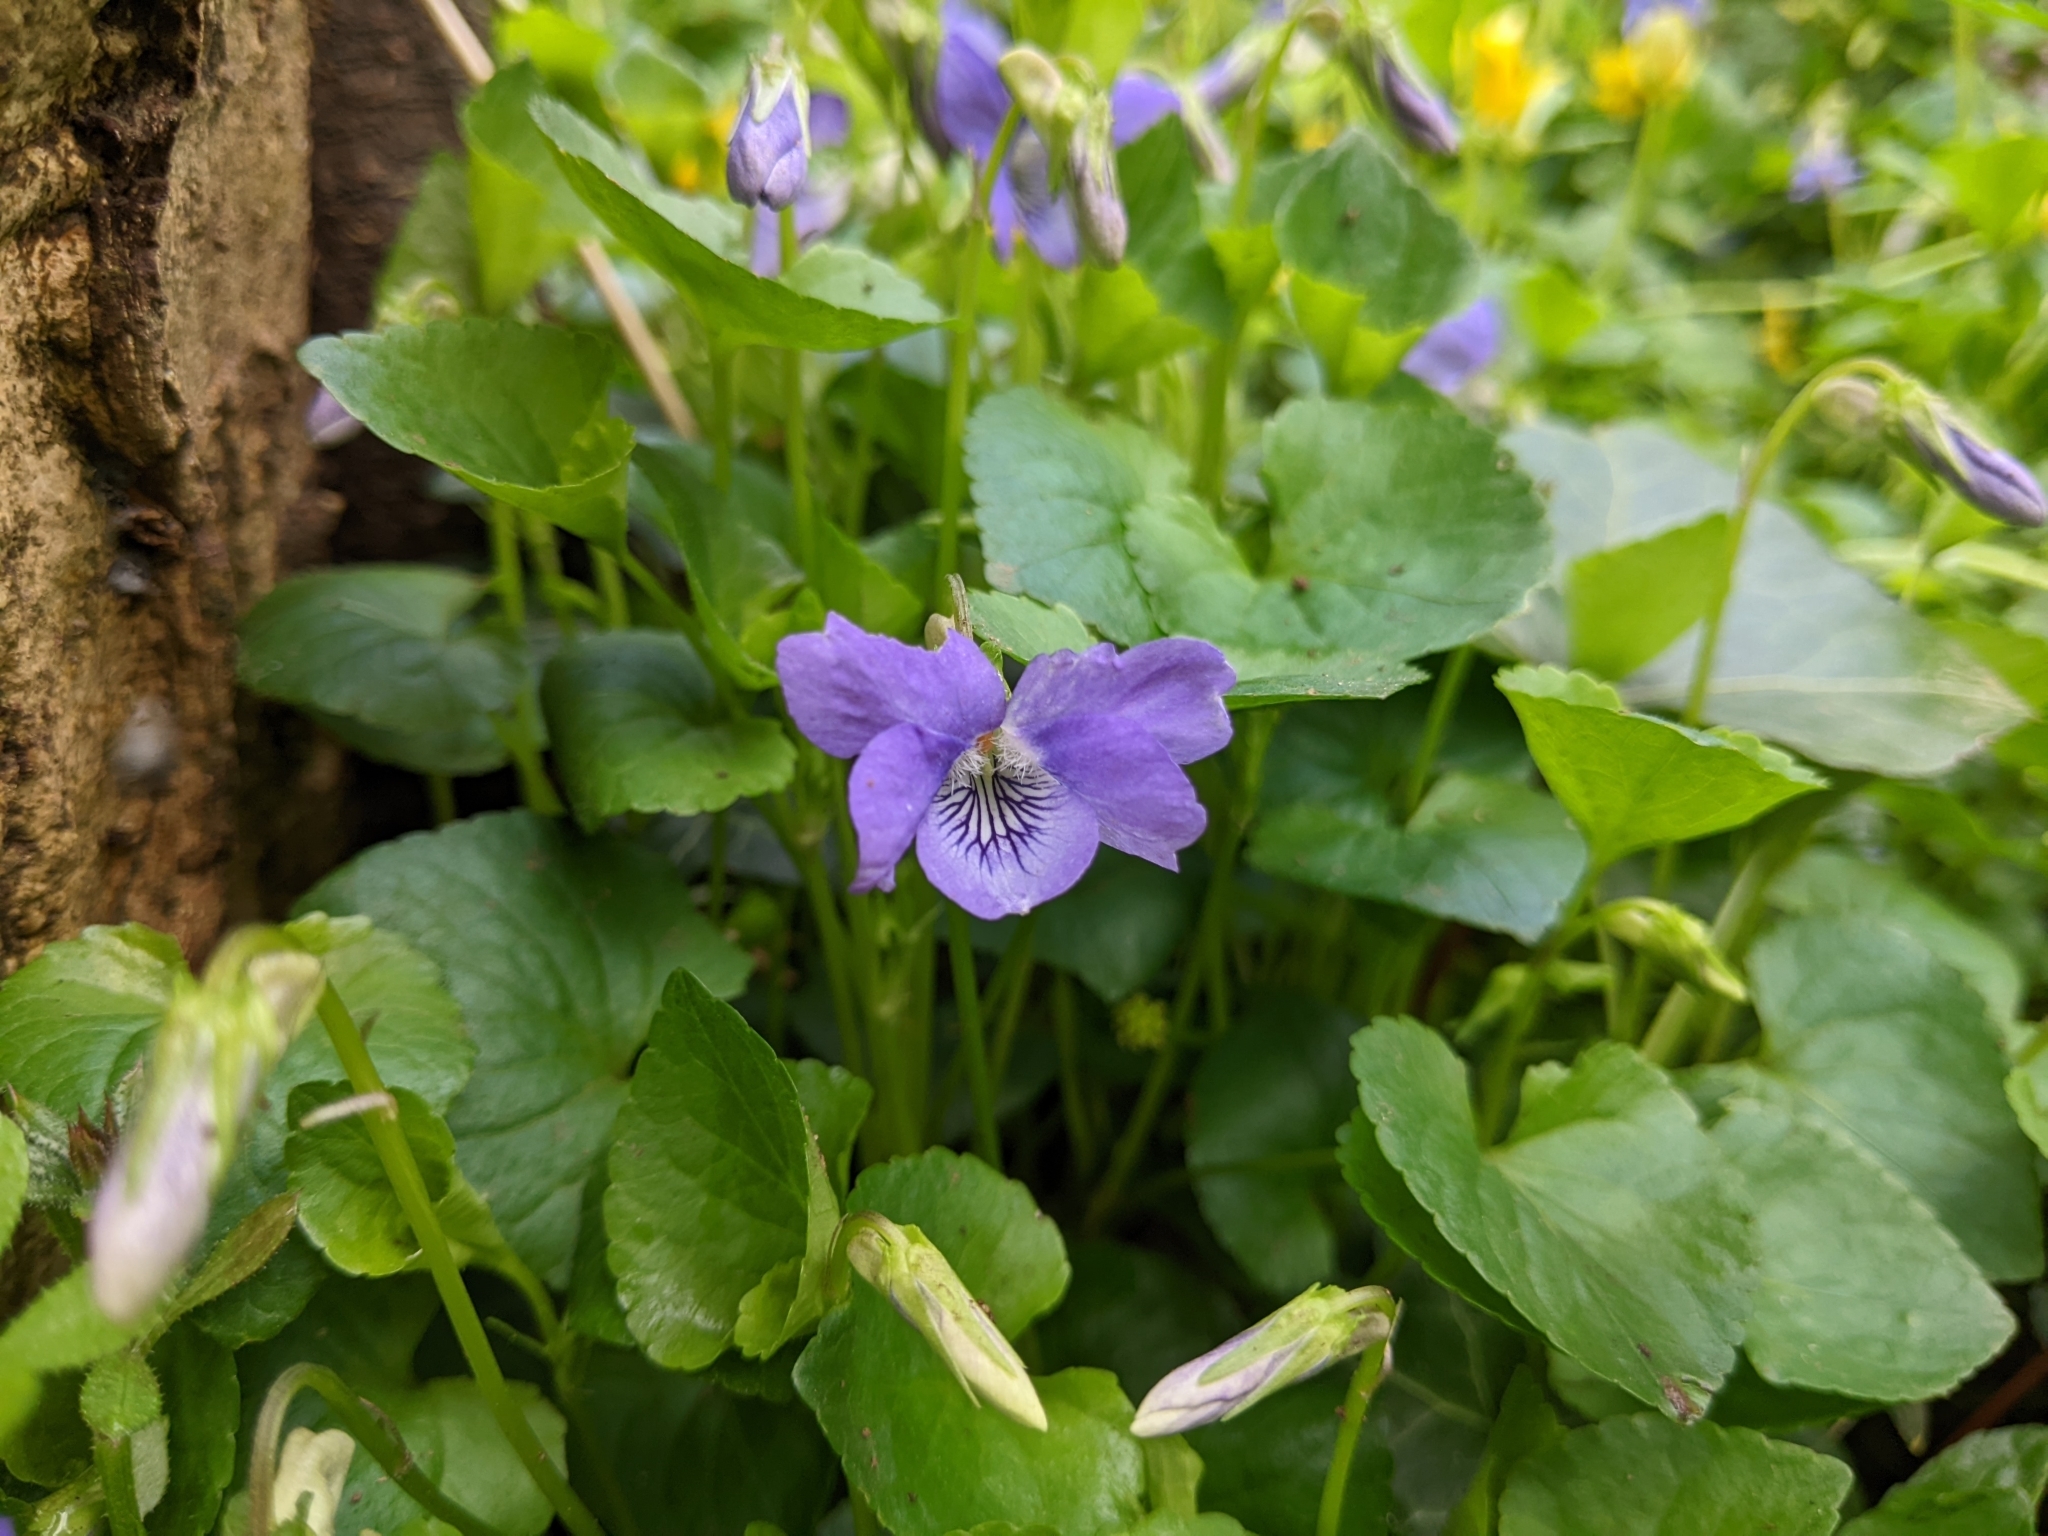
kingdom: Plantae
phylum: Tracheophyta
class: Magnoliopsida
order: Malpighiales
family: Violaceae
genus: Viola
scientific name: Viola riviniana
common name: Common dog-violet
